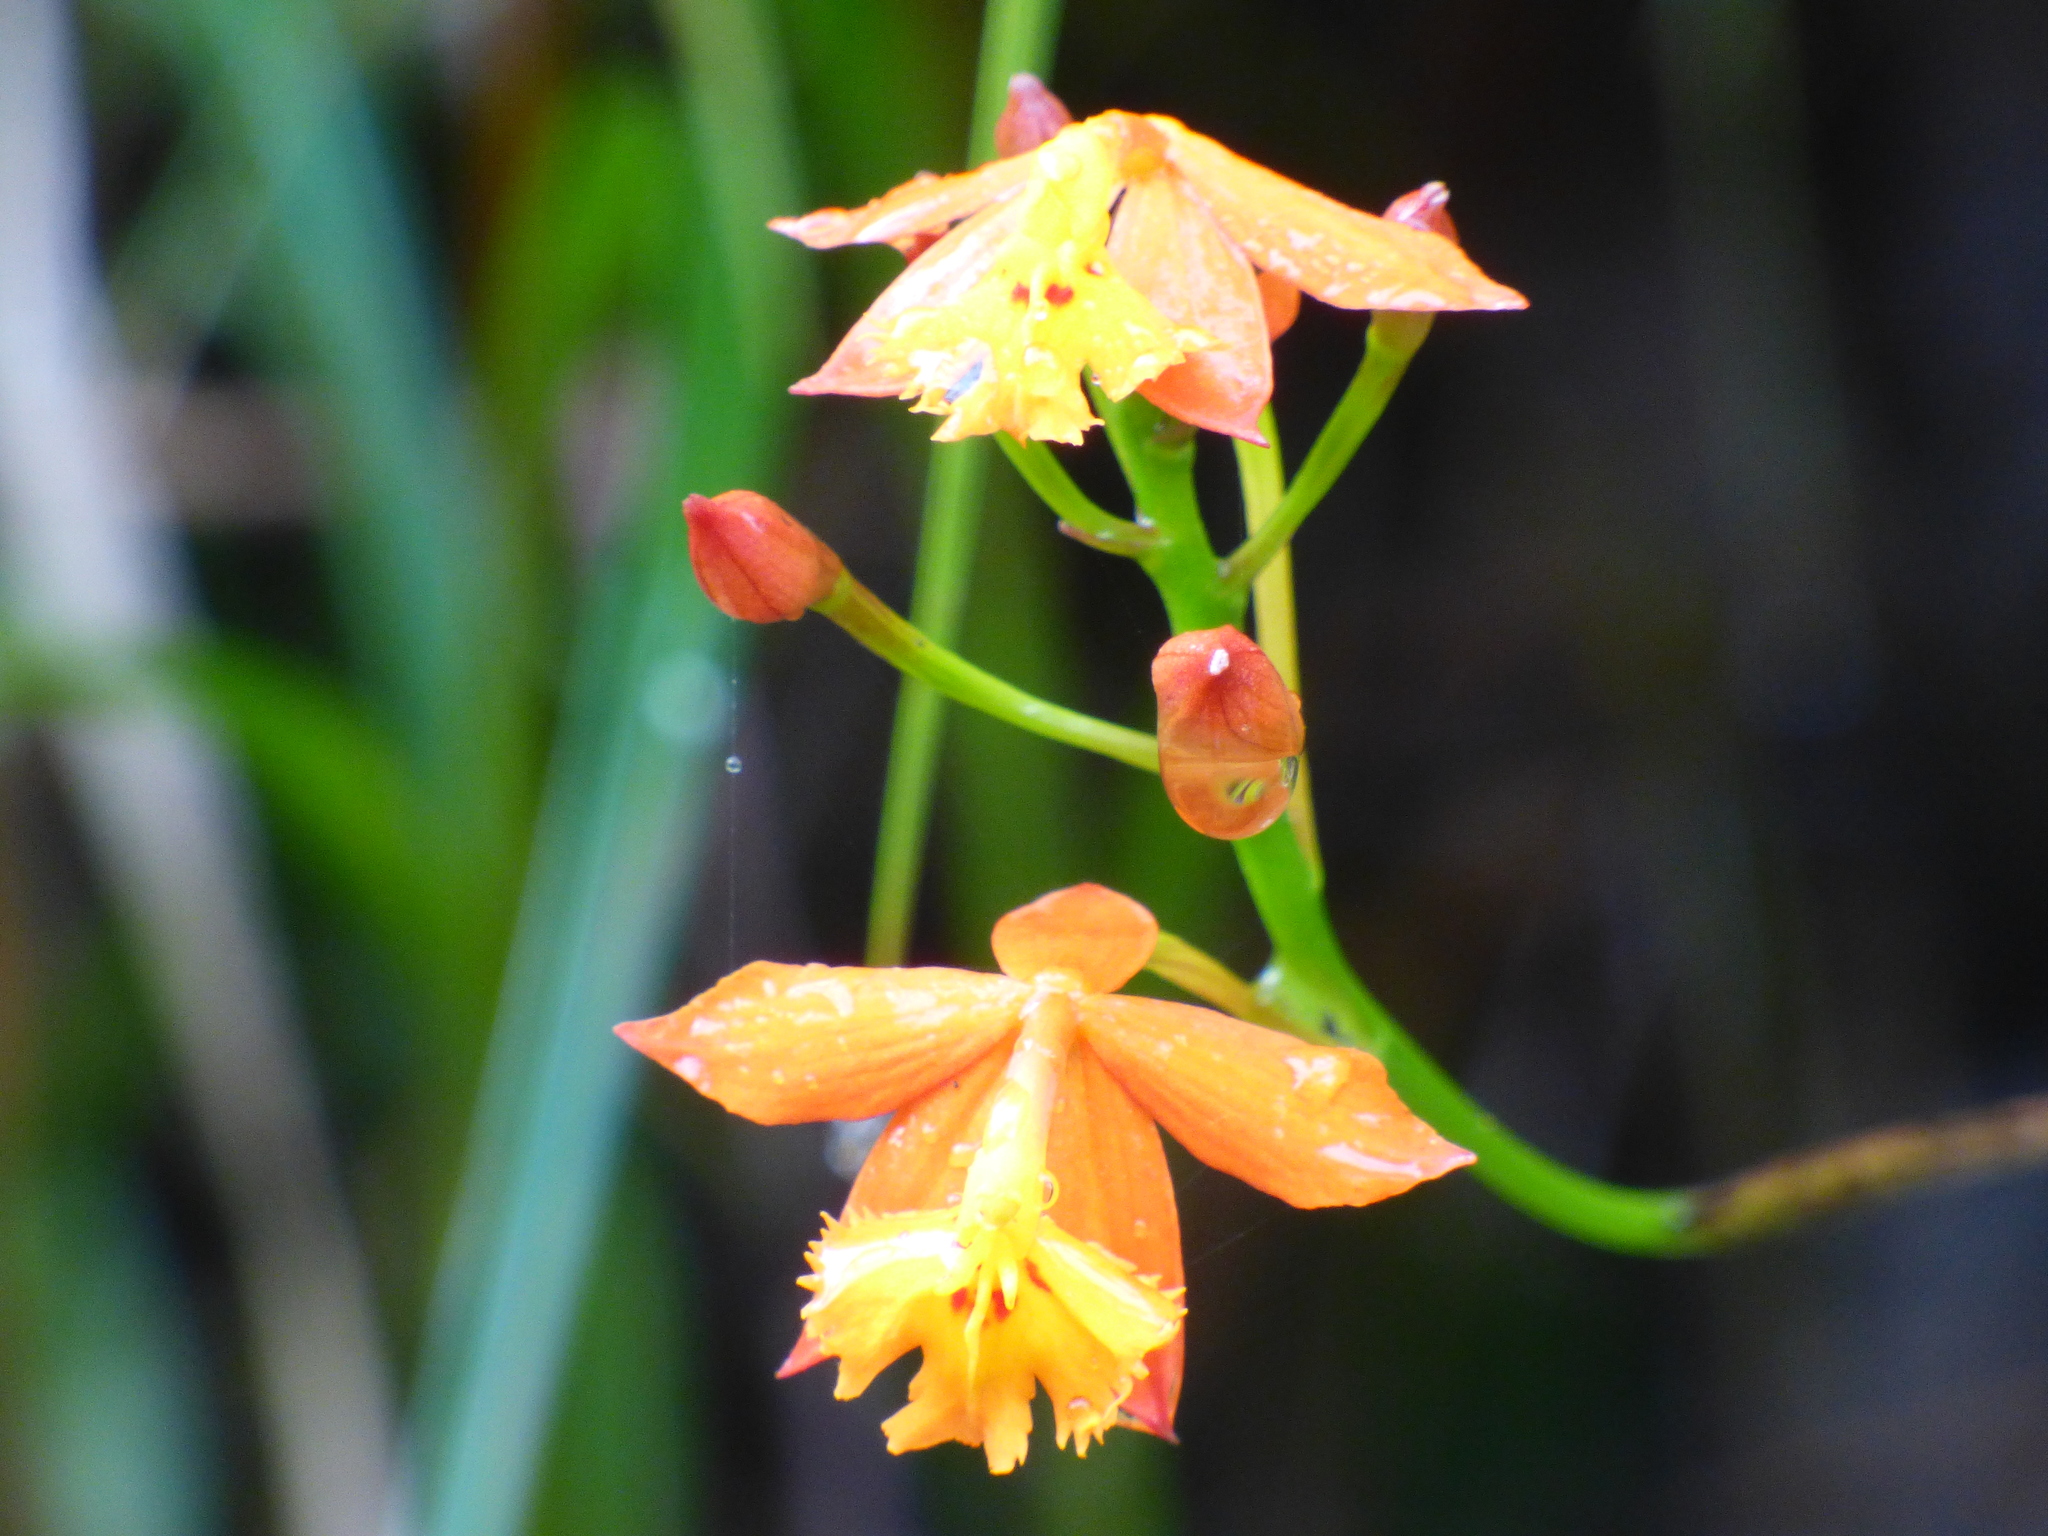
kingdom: Plantae
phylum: Tracheophyta
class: Liliopsida
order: Asparagales
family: Orchidaceae
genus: Epidendrum
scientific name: Epidendrum radicans
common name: Fire star orchid
